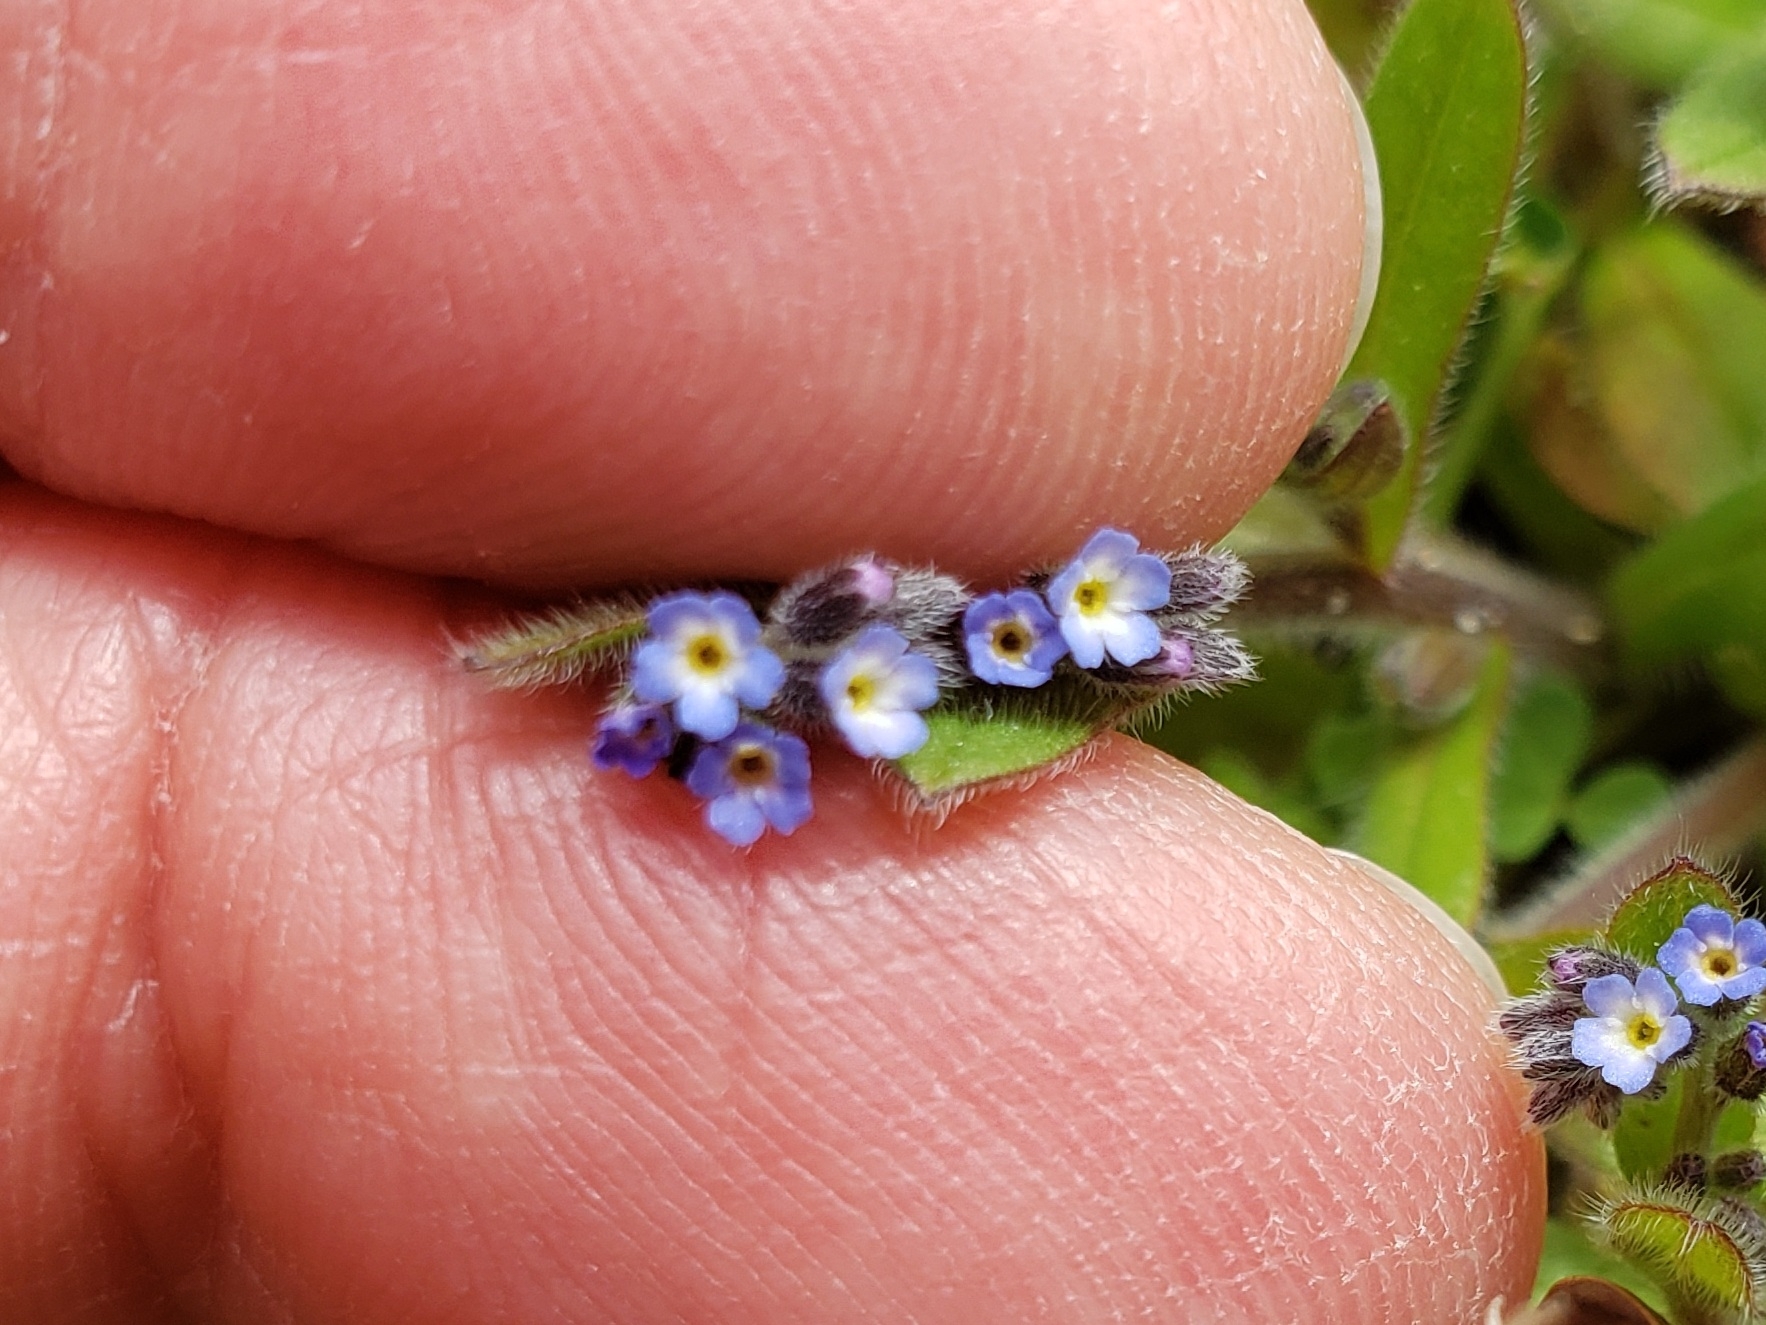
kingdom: Plantae
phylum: Tracheophyta
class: Magnoliopsida
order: Boraginales
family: Boraginaceae
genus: Myosotis
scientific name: Myosotis ramosissima
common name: Early forget-me-not
